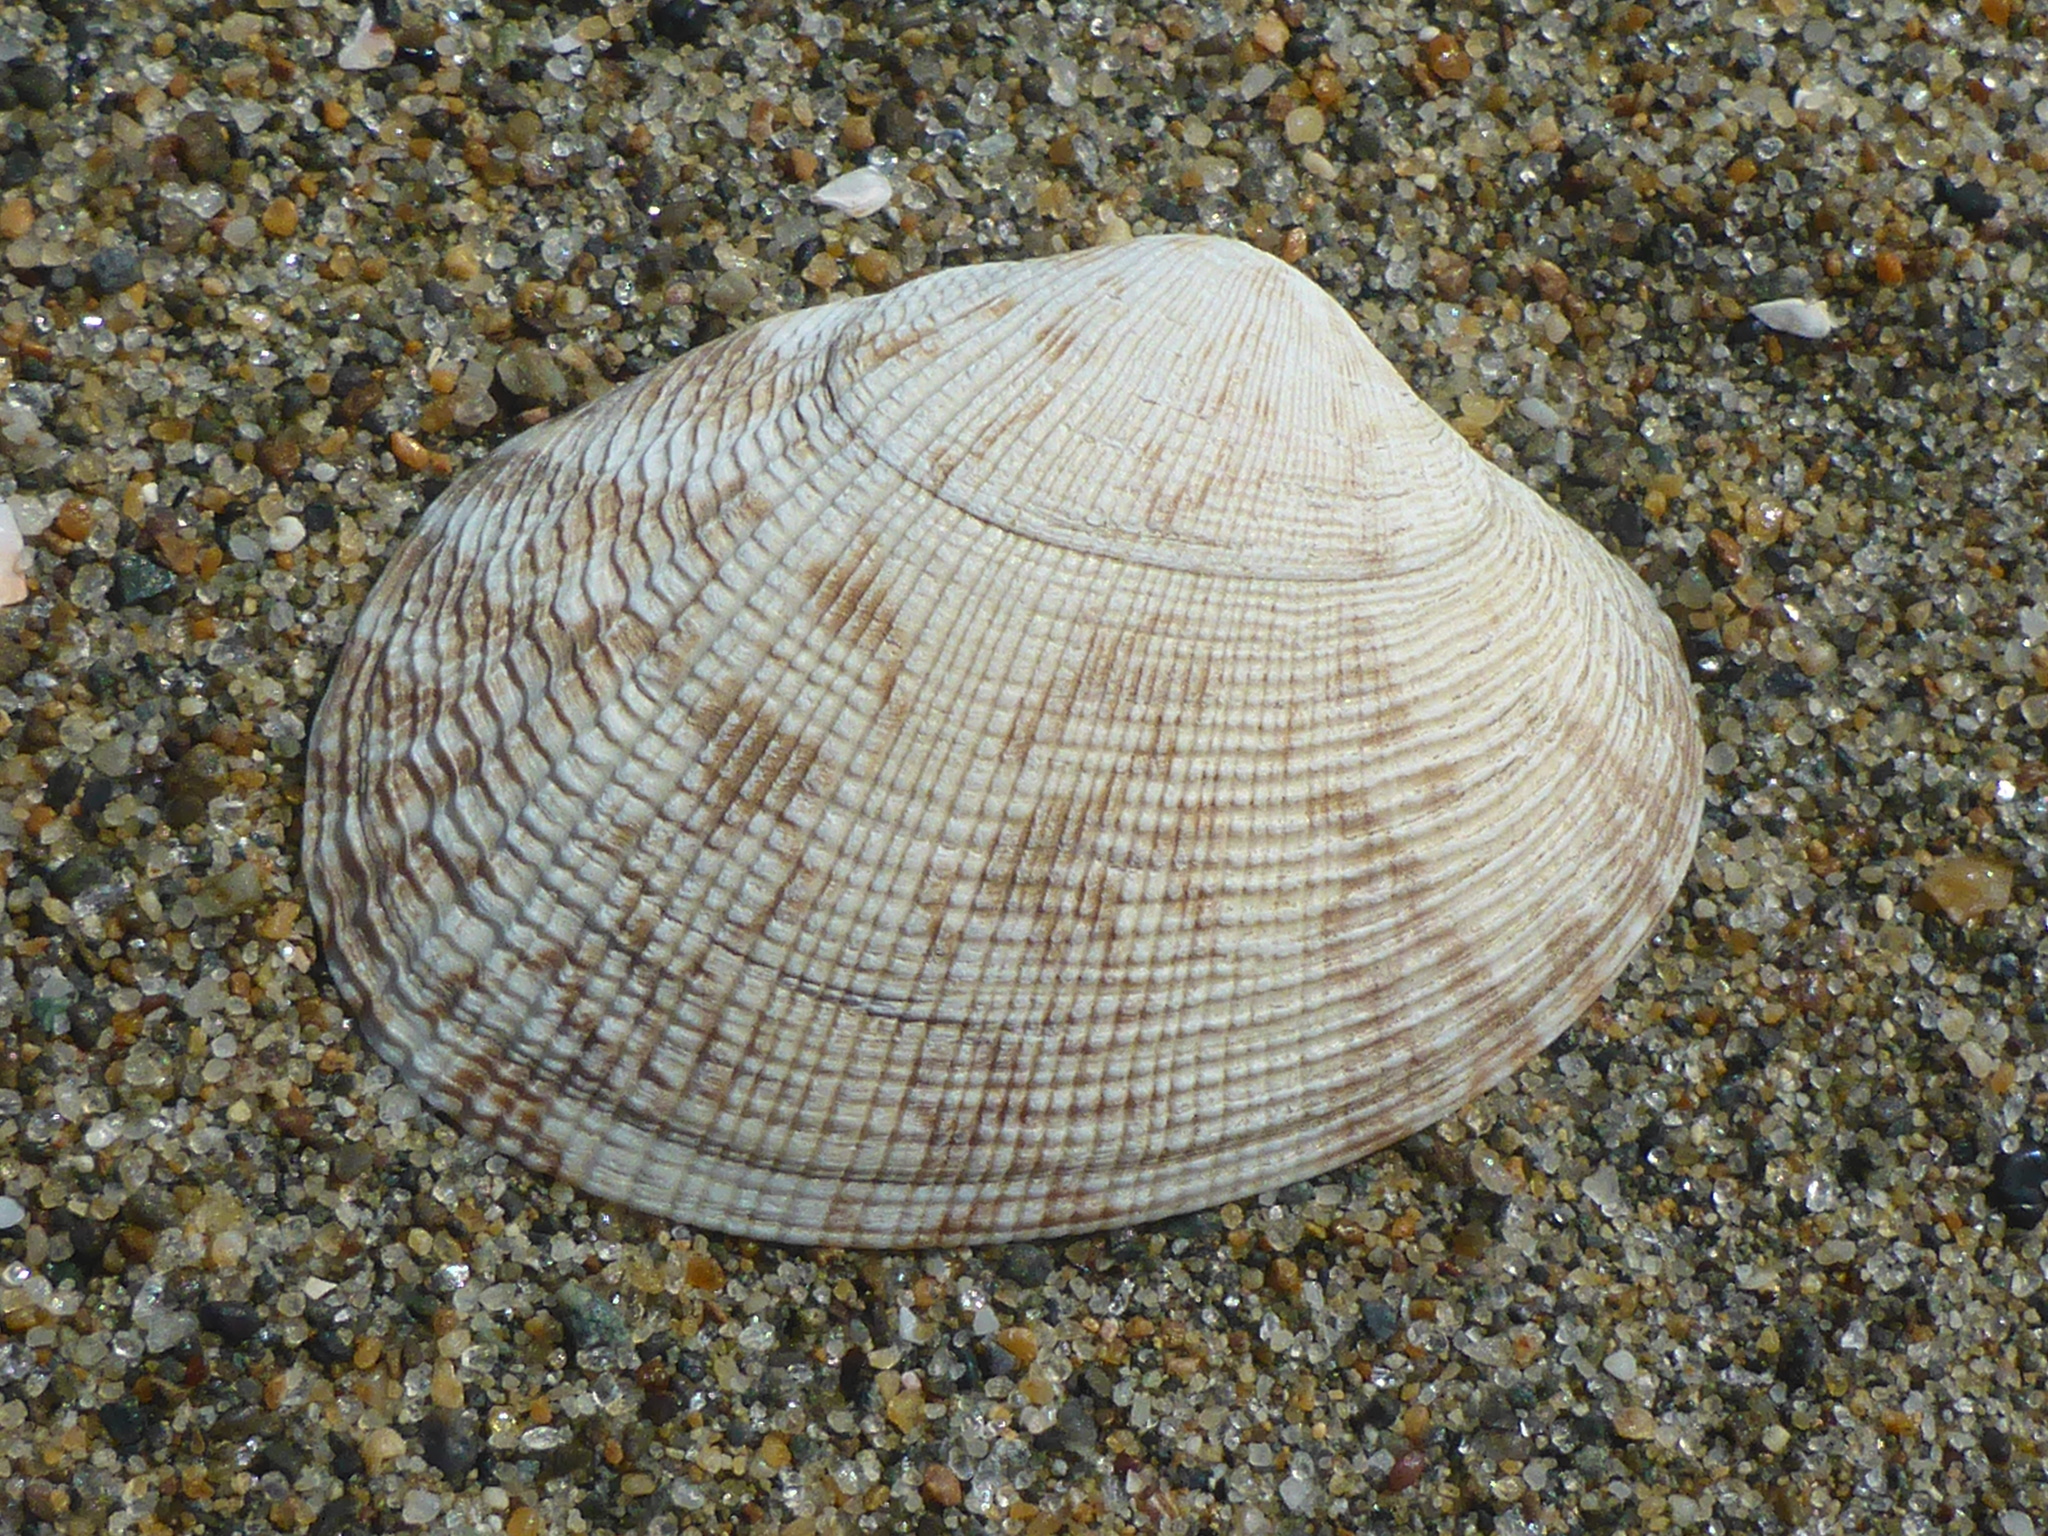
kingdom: Animalia
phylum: Mollusca
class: Bivalvia
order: Venerida
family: Veneridae
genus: Ruditapes
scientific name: Ruditapes philippinarum
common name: Manila clam
